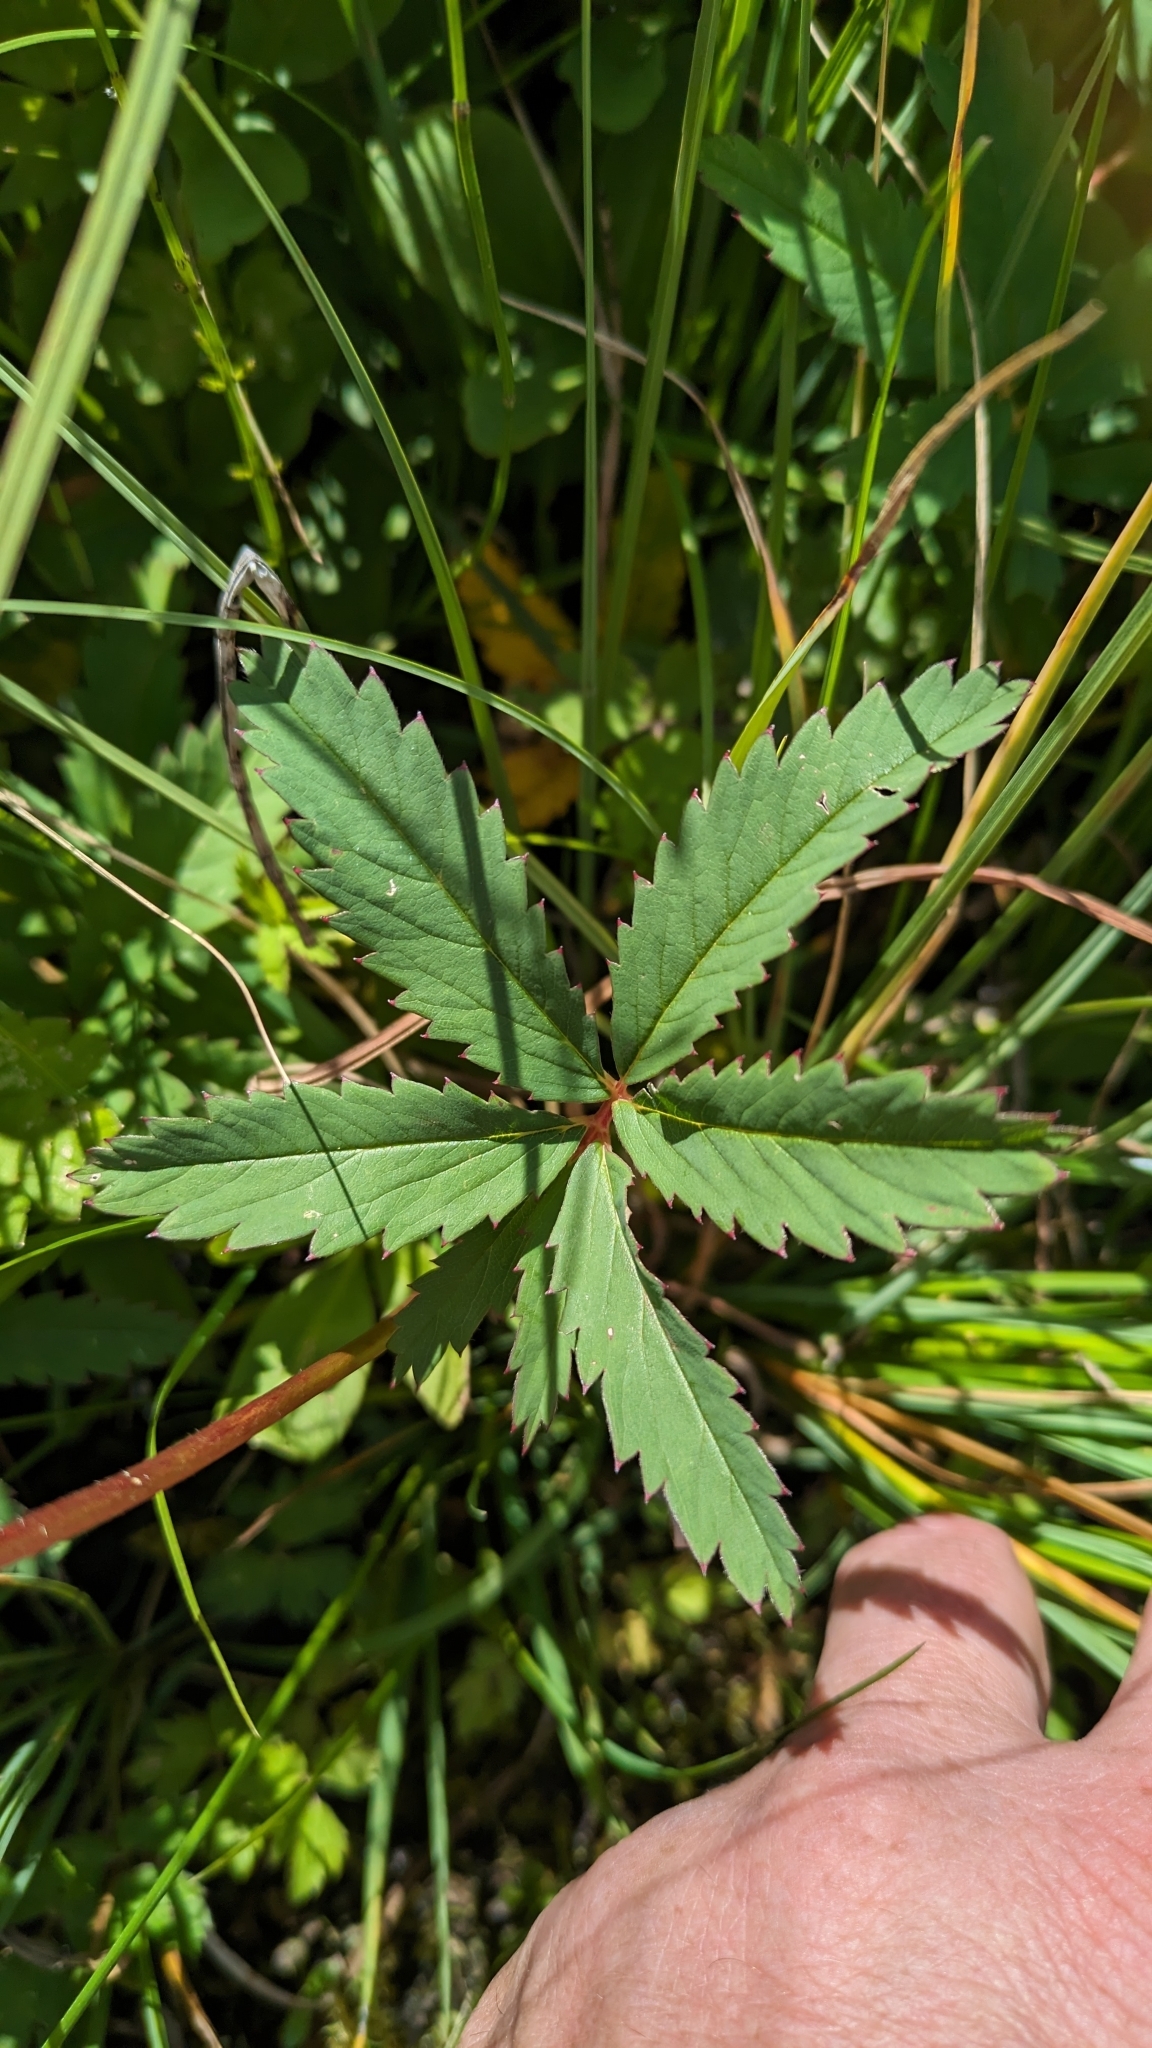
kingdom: Plantae
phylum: Tracheophyta
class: Magnoliopsida
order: Rosales
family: Rosaceae
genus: Comarum
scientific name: Comarum palustre
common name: Marsh cinquefoil
